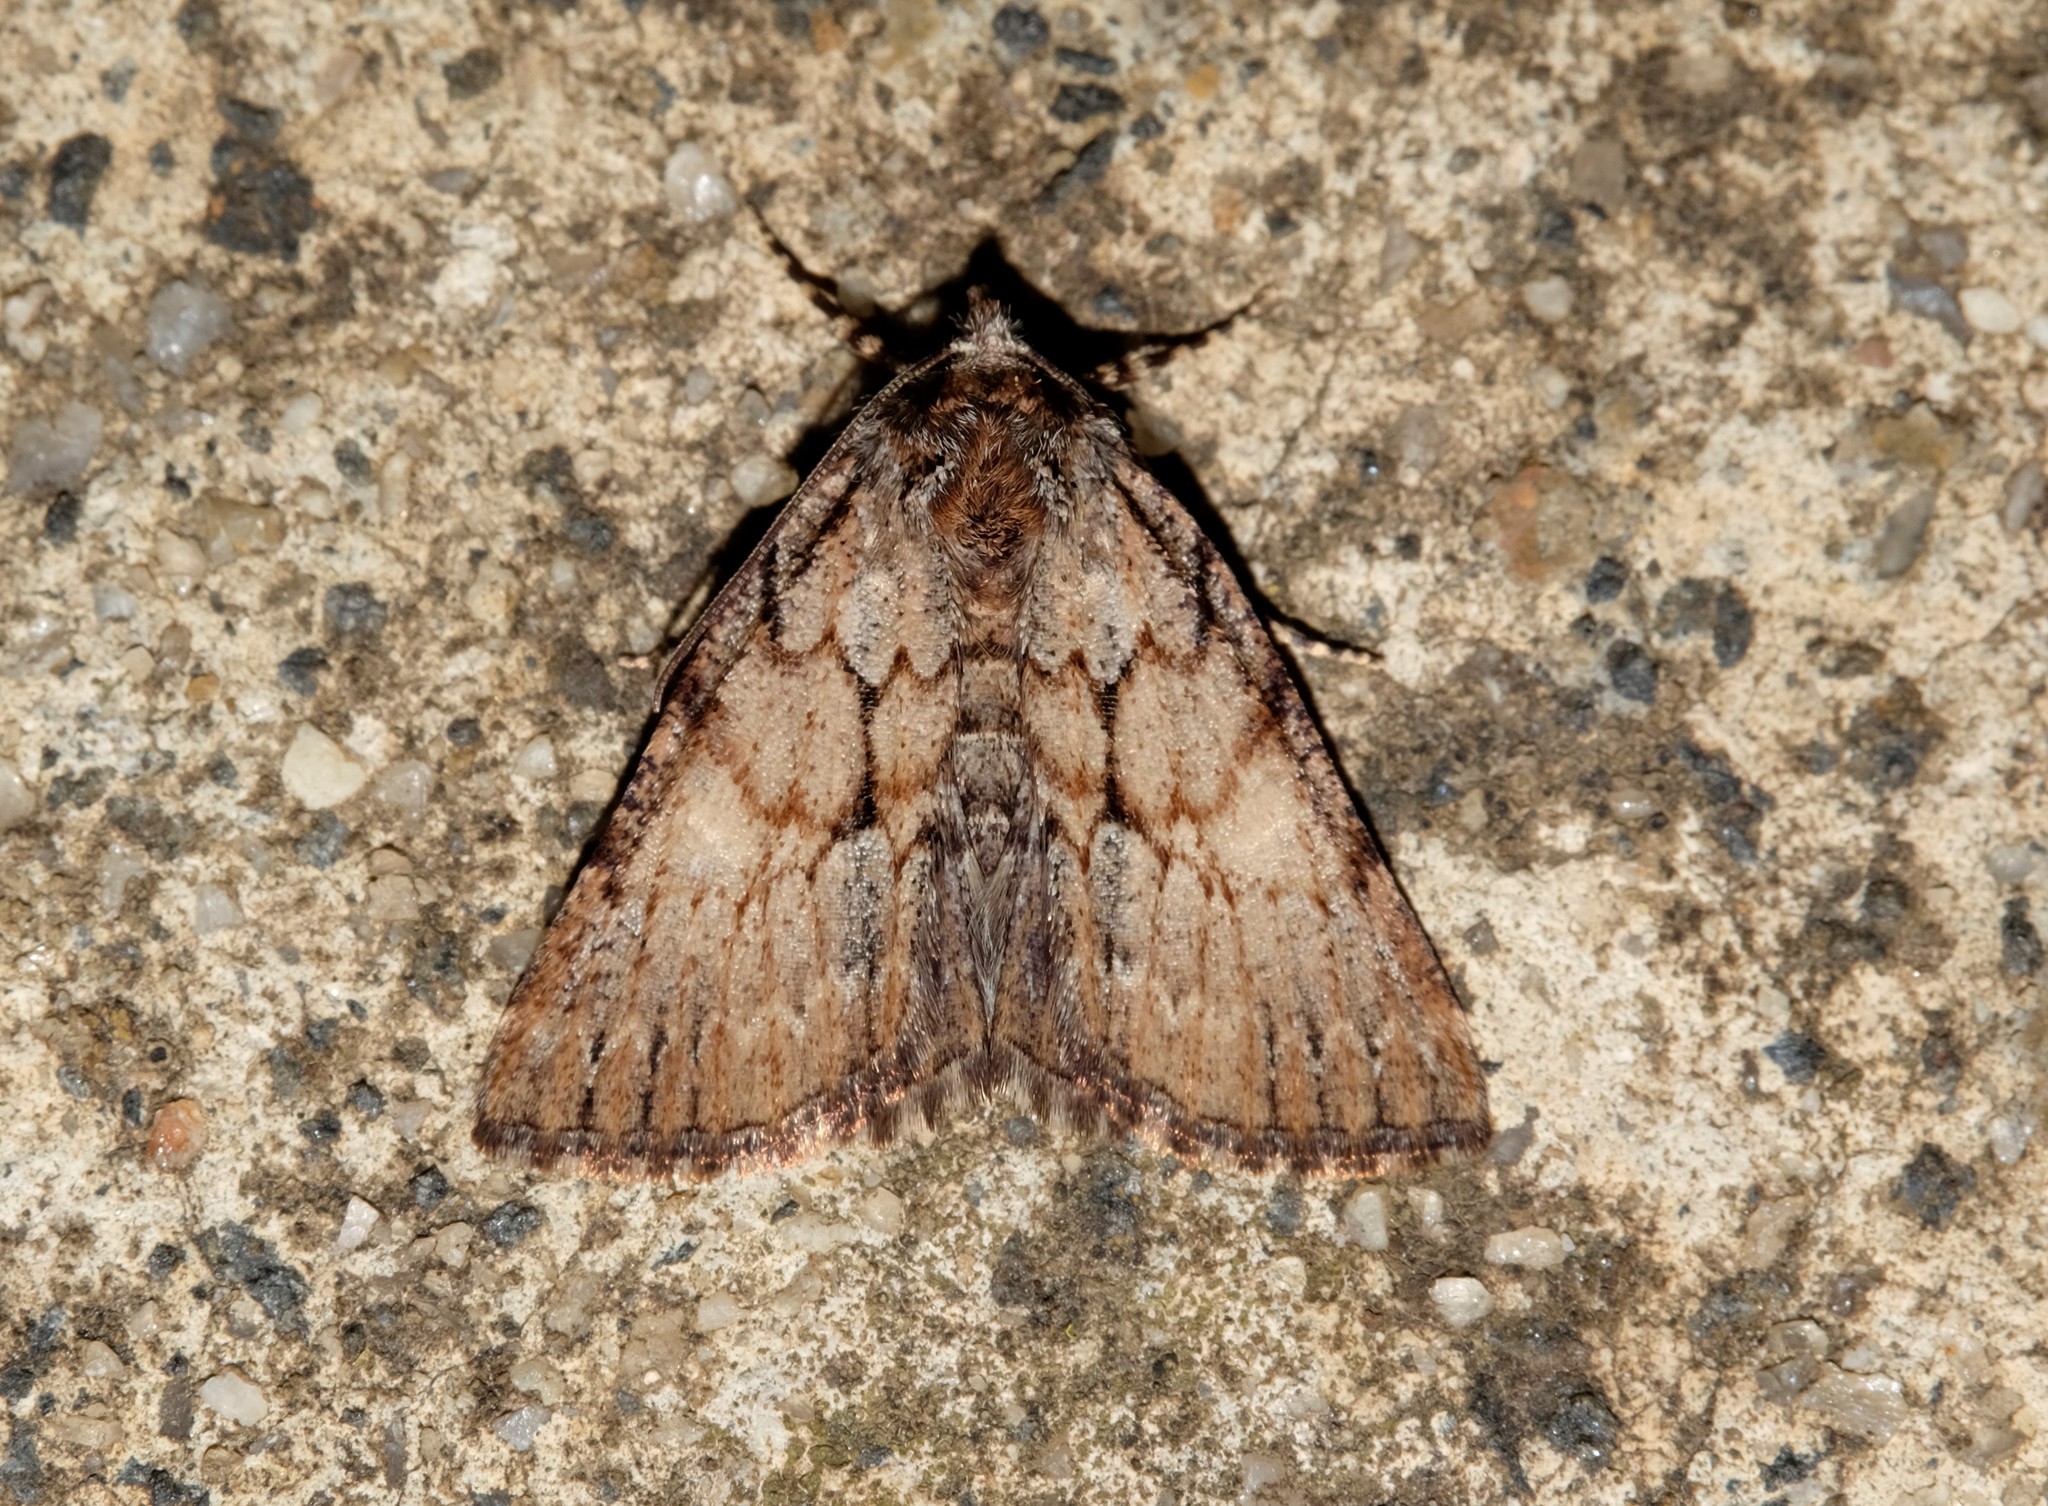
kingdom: Animalia
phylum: Arthropoda
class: Insecta
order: Lepidoptera
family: Geometridae
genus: Smyriodes
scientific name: Smyriodes
